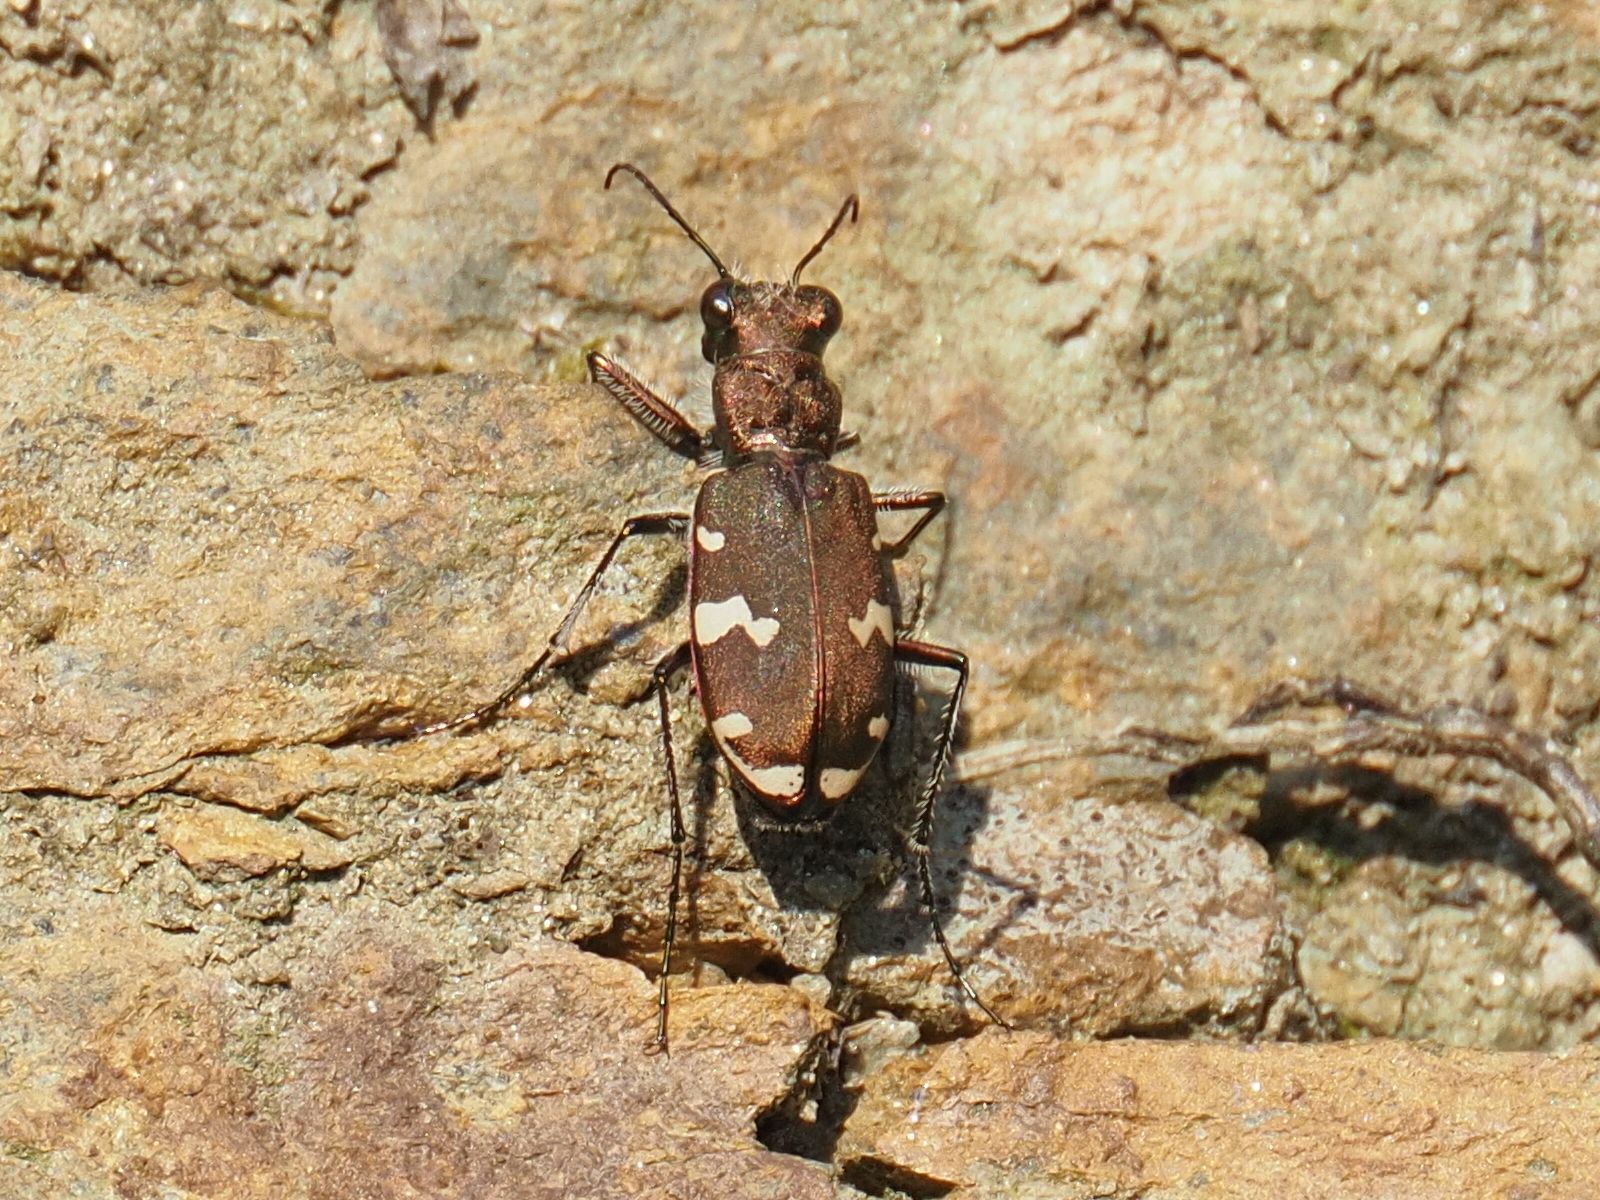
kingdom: Animalia
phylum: Arthropoda
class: Insecta
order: Coleoptera
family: Carabidae
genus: Cicindela
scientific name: Cicindela sylvicola
